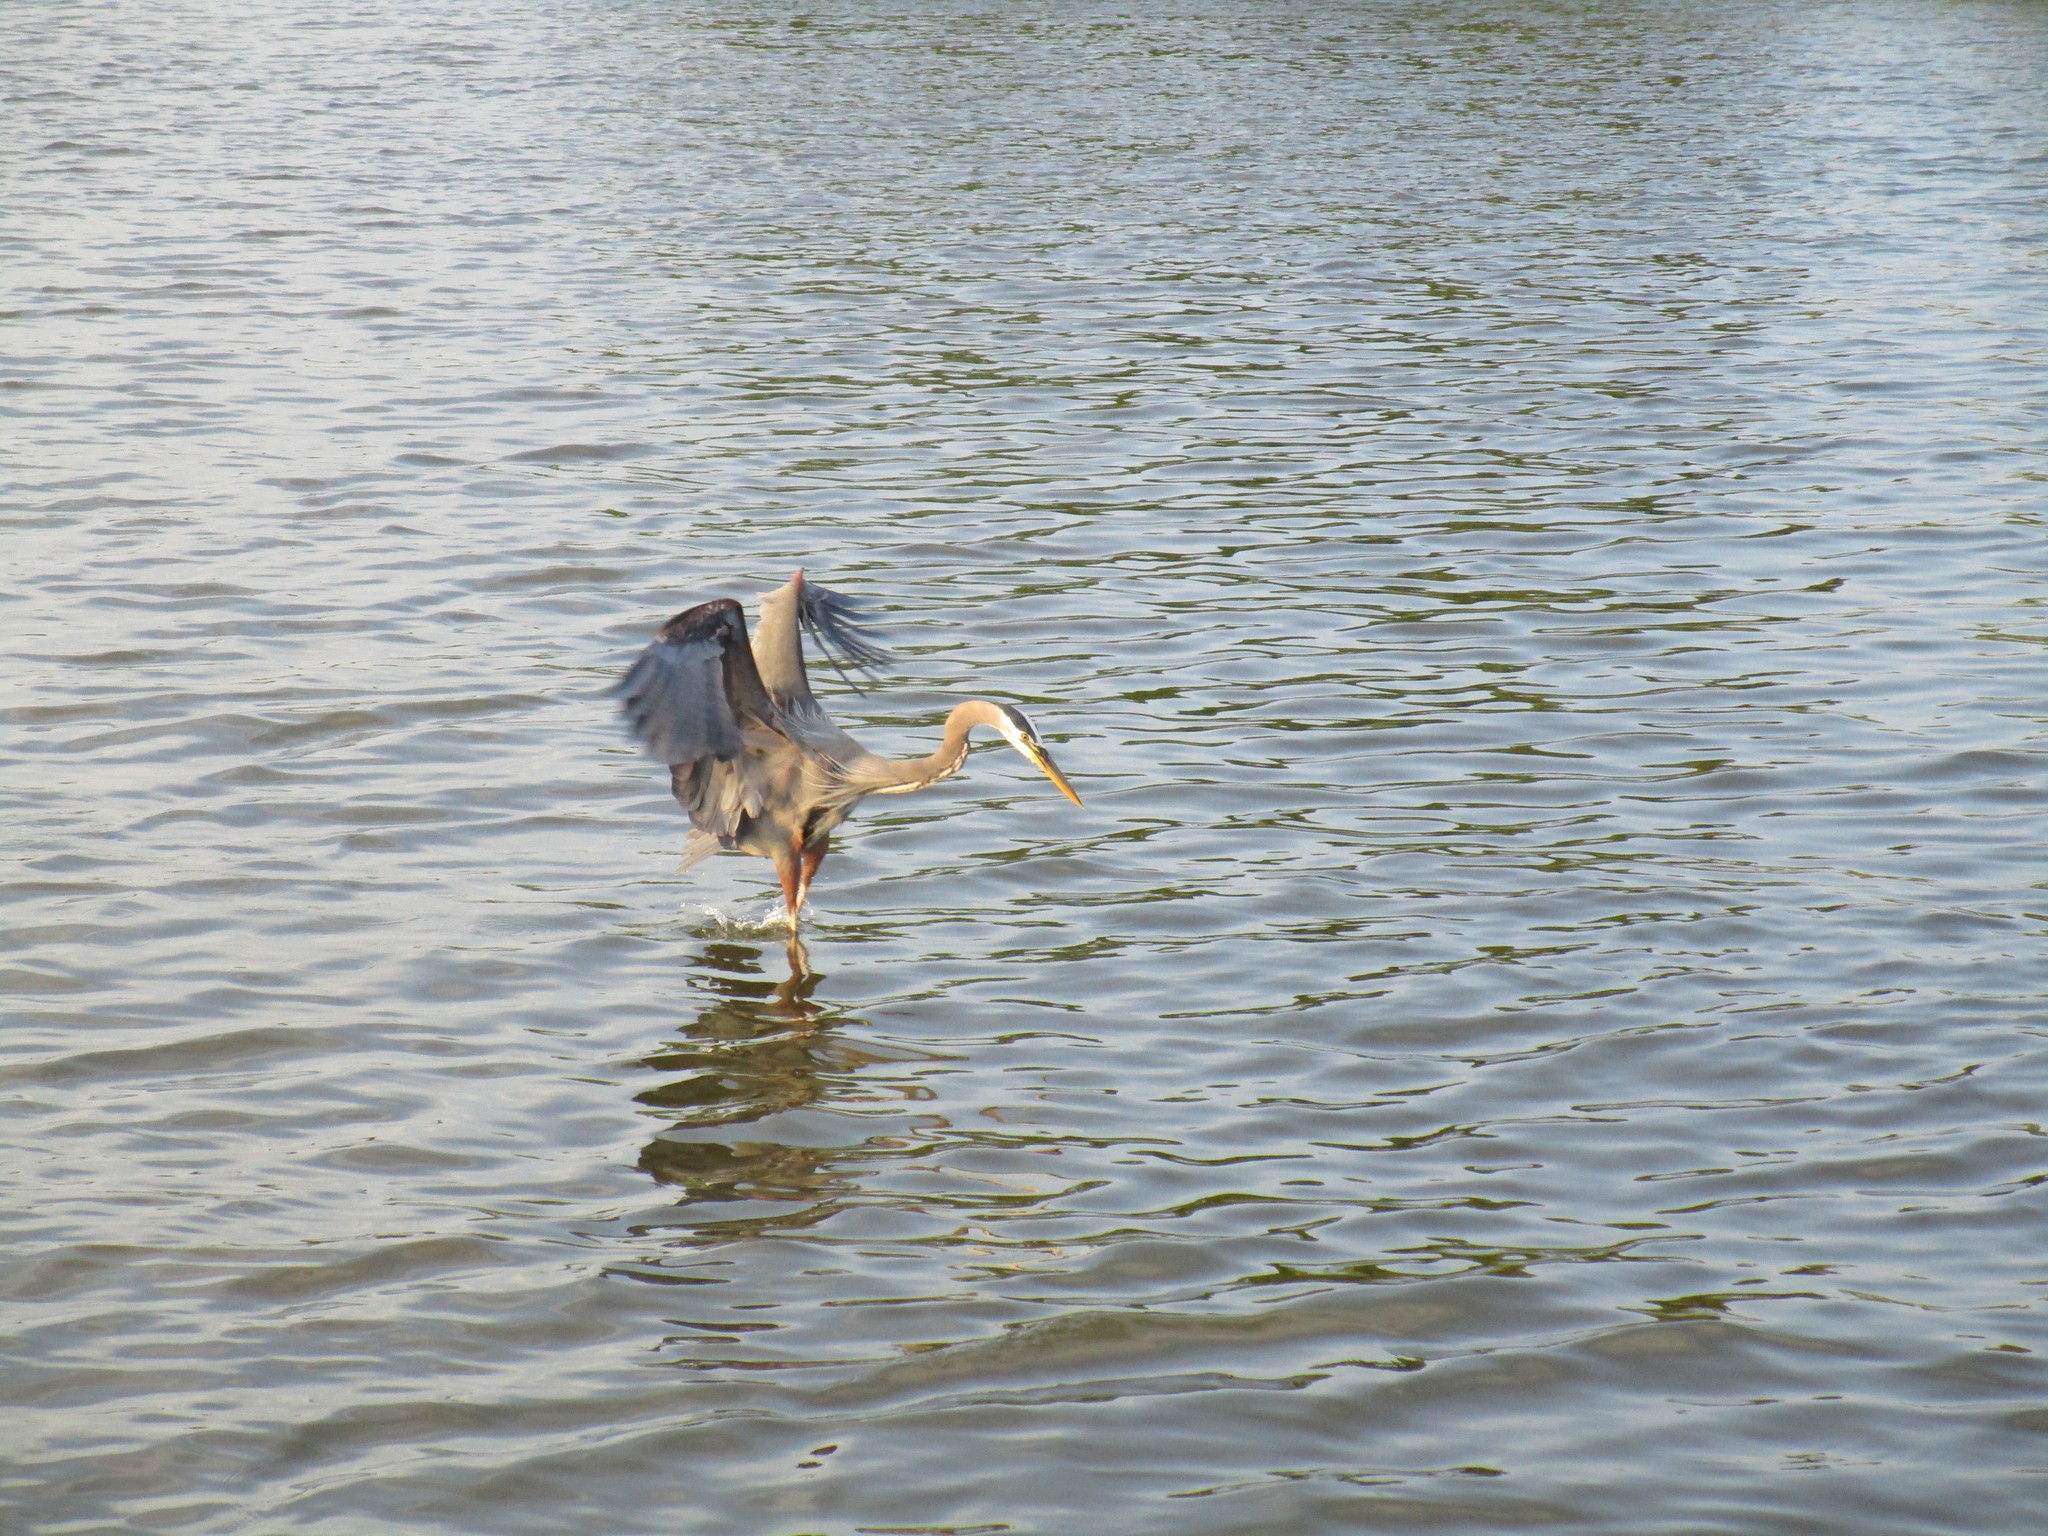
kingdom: Animalia
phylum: Chordata
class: Aves
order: Pelecaniformes
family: Ardeidae
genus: Ardea
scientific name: Ardea herodias
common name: Great blue heron
